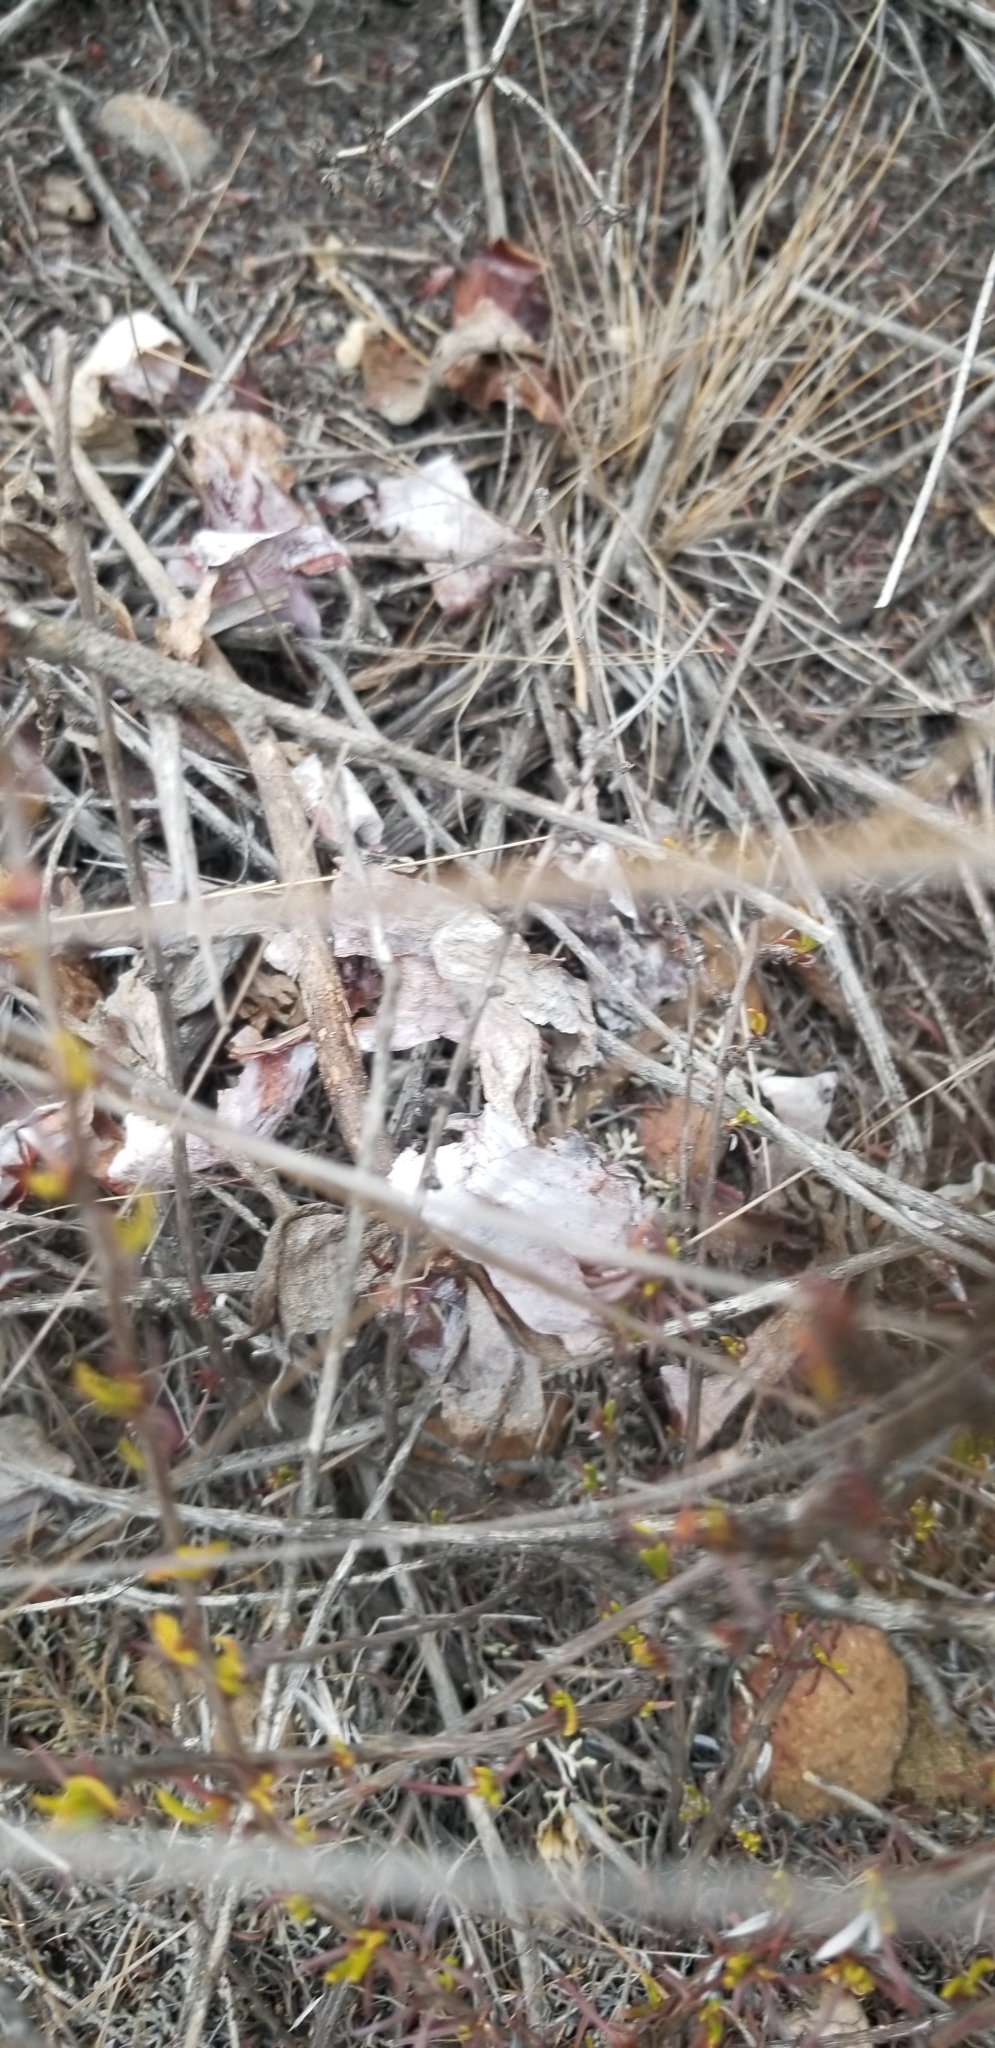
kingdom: Plantae
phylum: Tracheophyta
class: Magnoliopsida
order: Saxifragales
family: Crassulaceae
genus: Dudleya
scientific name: Dudleya pulverulenta
